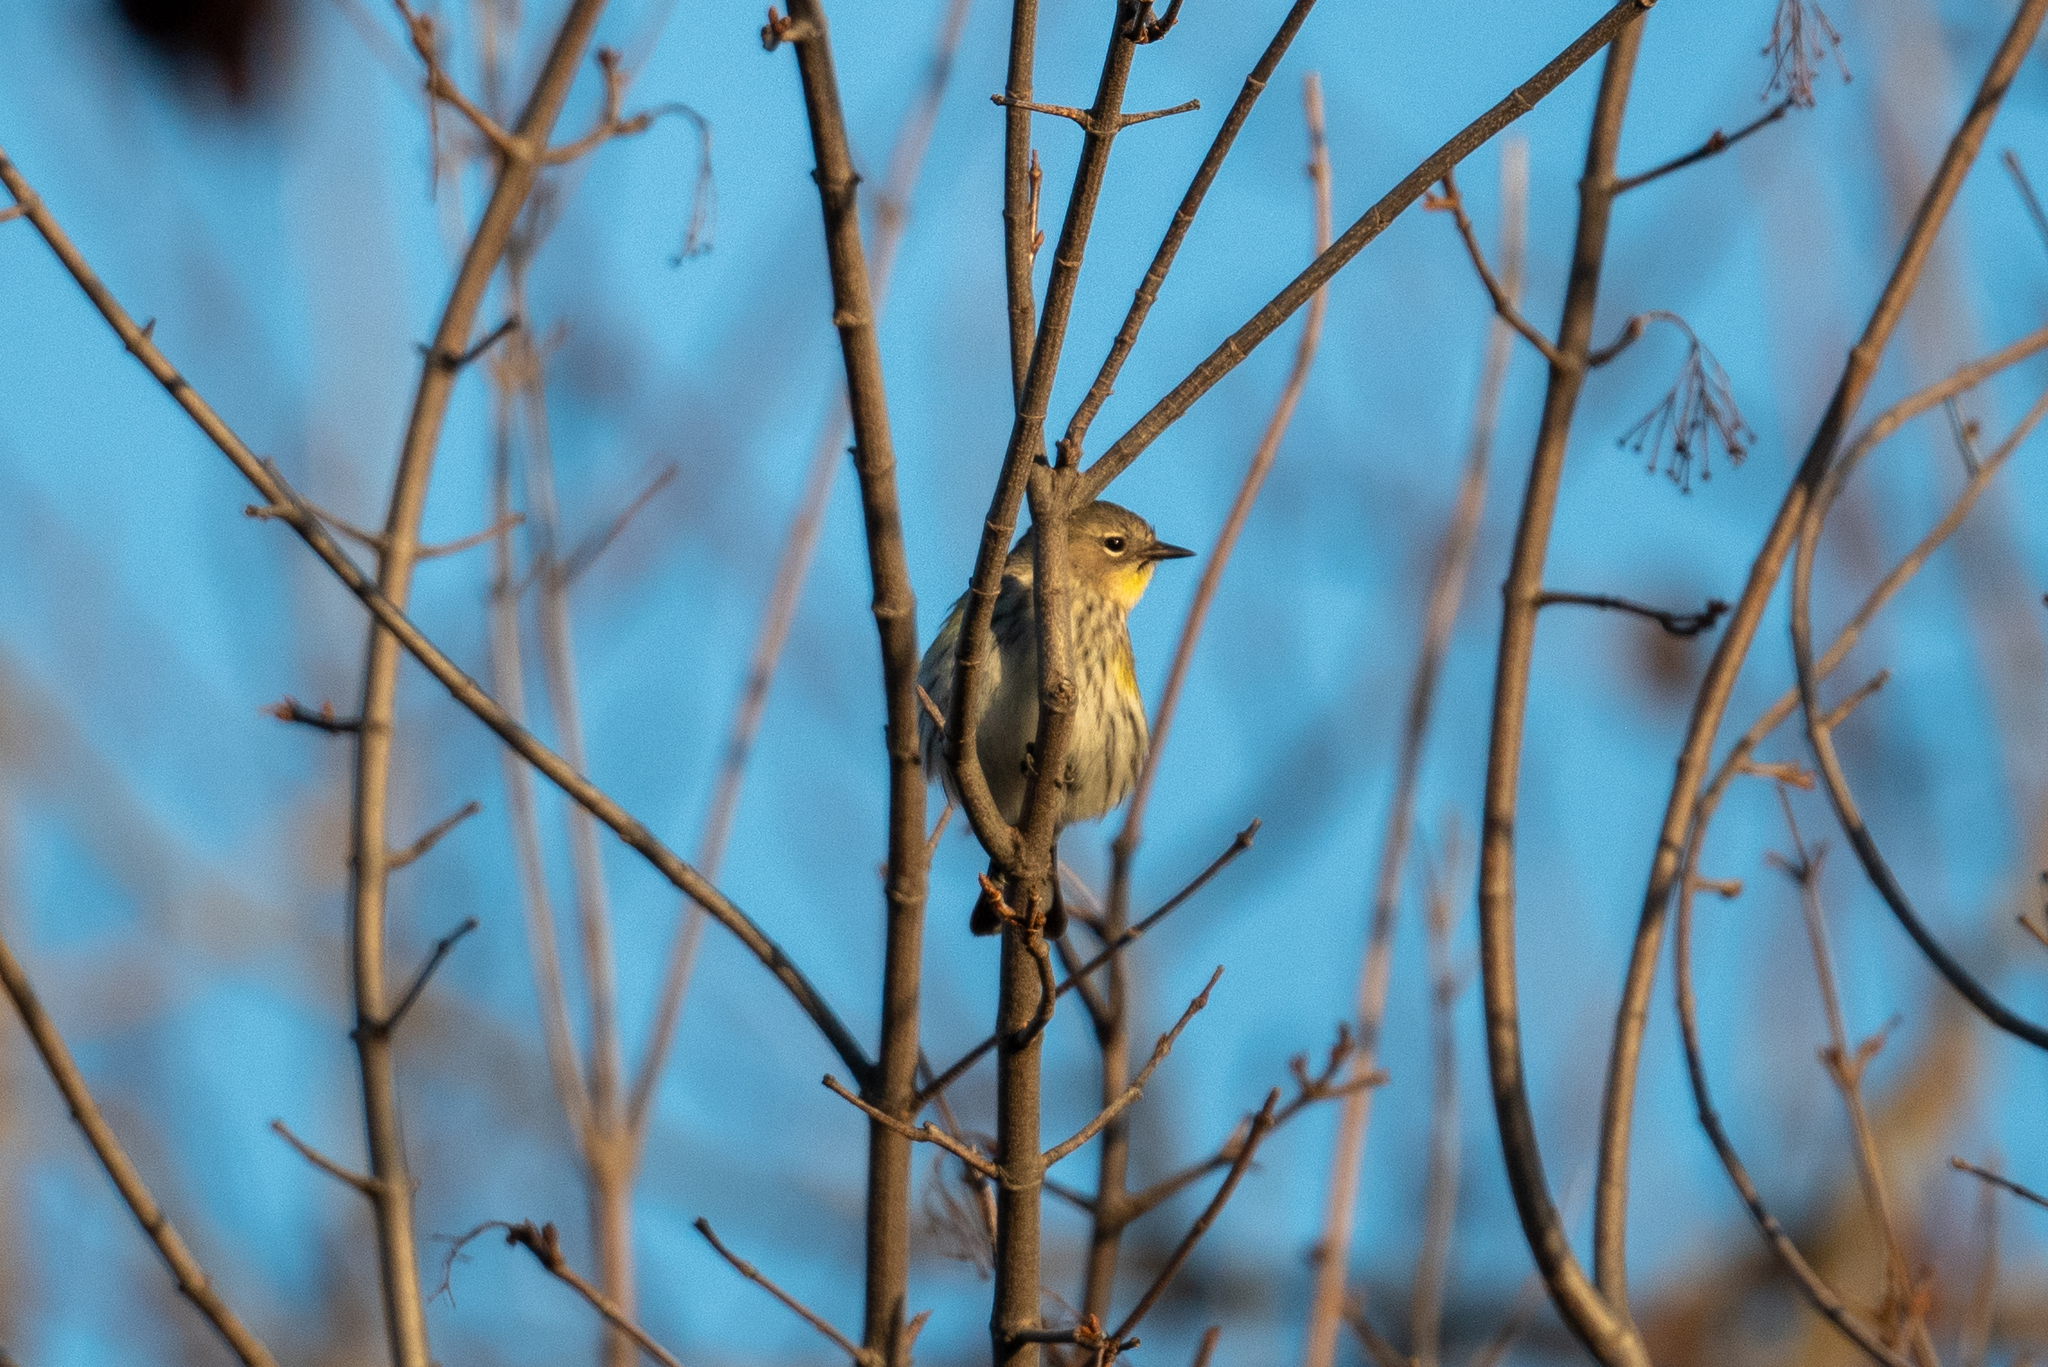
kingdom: Animalia
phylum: Chordata
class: Aves
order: Passeriformes
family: Parulidae
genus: Setophaga
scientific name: Setophaga coronata
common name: Myrtle warbler
